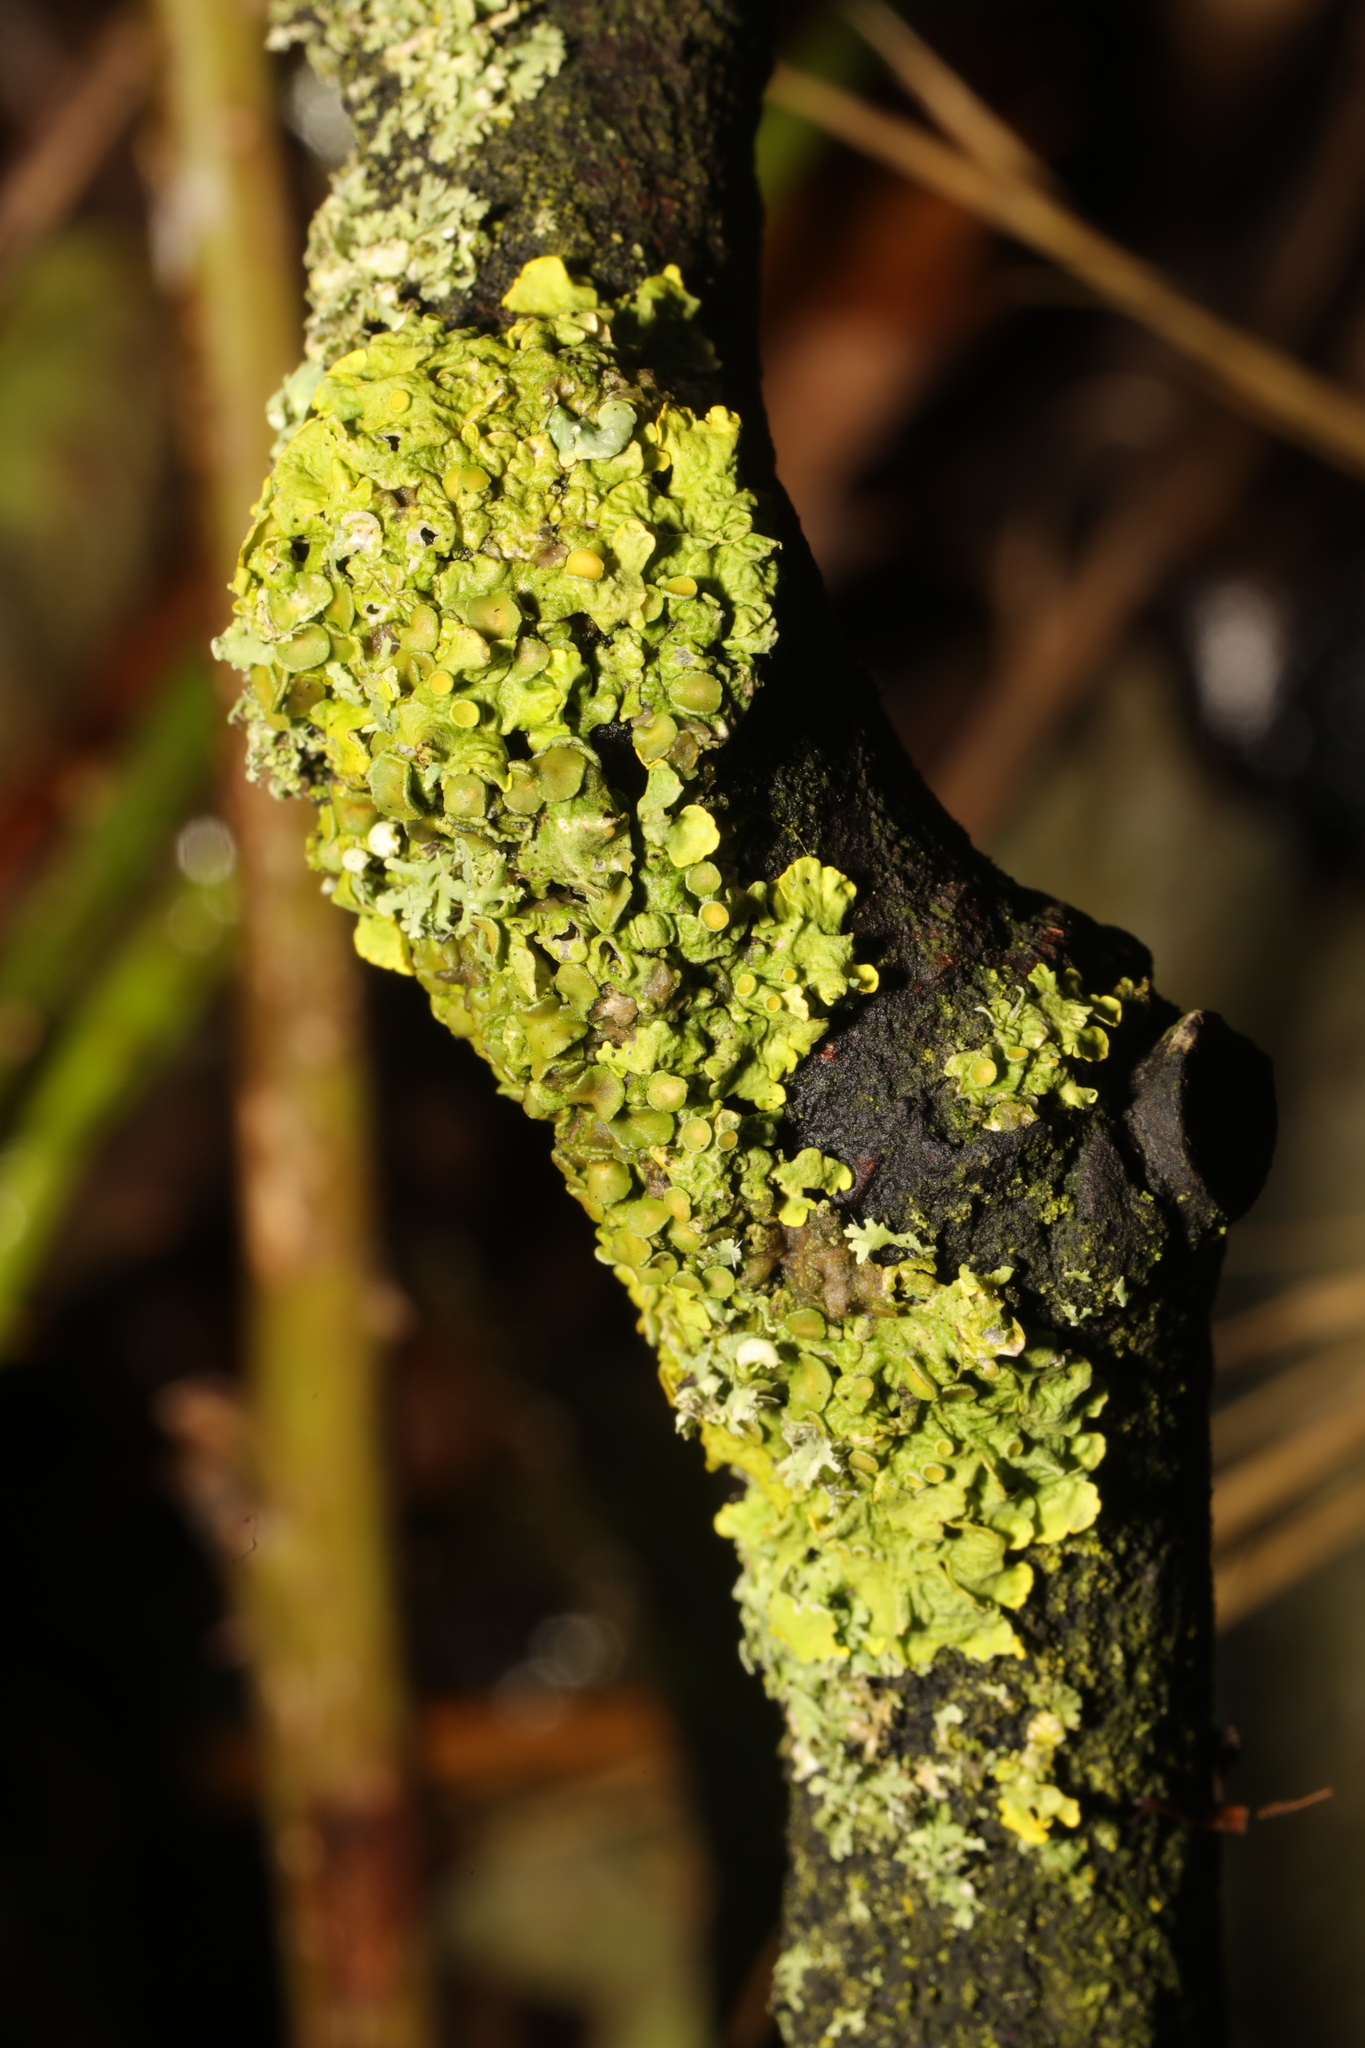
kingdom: Fungi
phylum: Ascomycota
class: Lecanoromycetes
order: Teloschistales
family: Teloschistaceae
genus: Xanthoria
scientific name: Xanthoria parietina
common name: Common orange lichen
